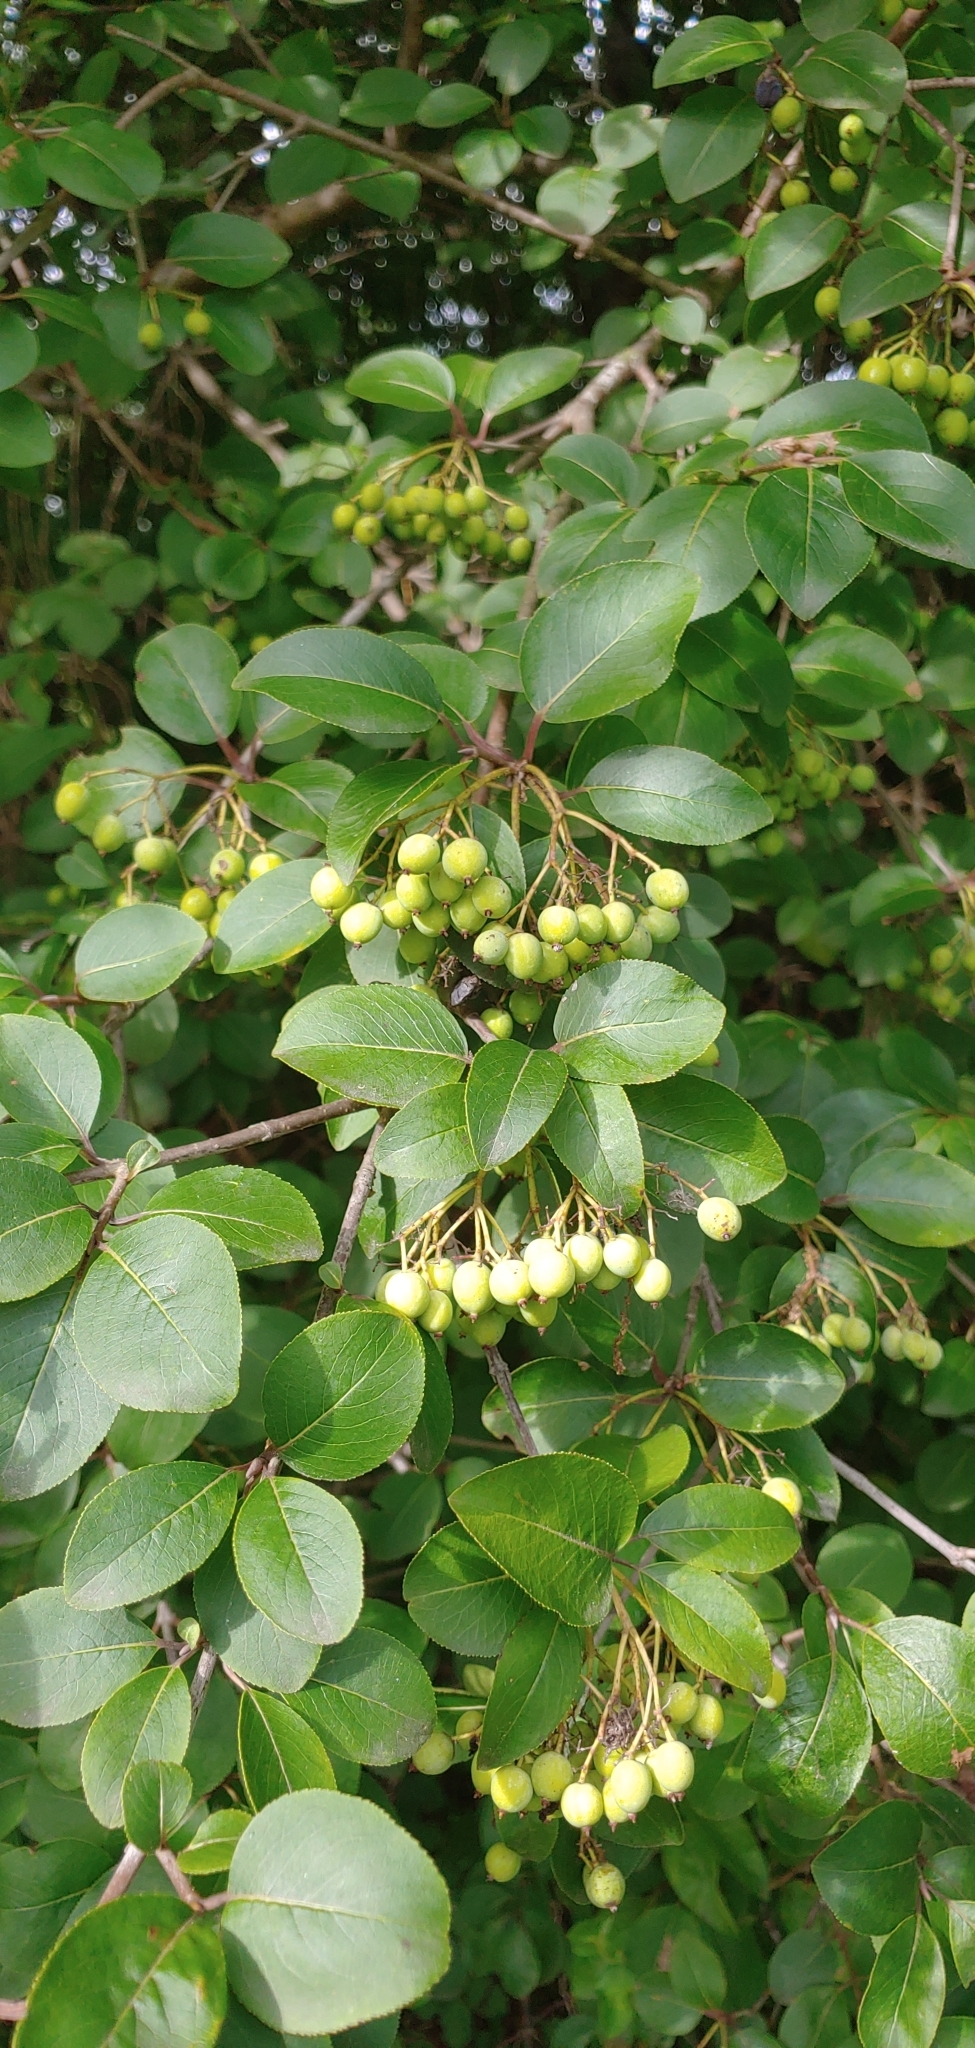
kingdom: Plantae
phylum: Tracheophyta
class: Magnoliopsida
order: Dipsacales
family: Viburnaceae
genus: Viburnum
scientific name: Viburnum prunifolium
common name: Black haw
